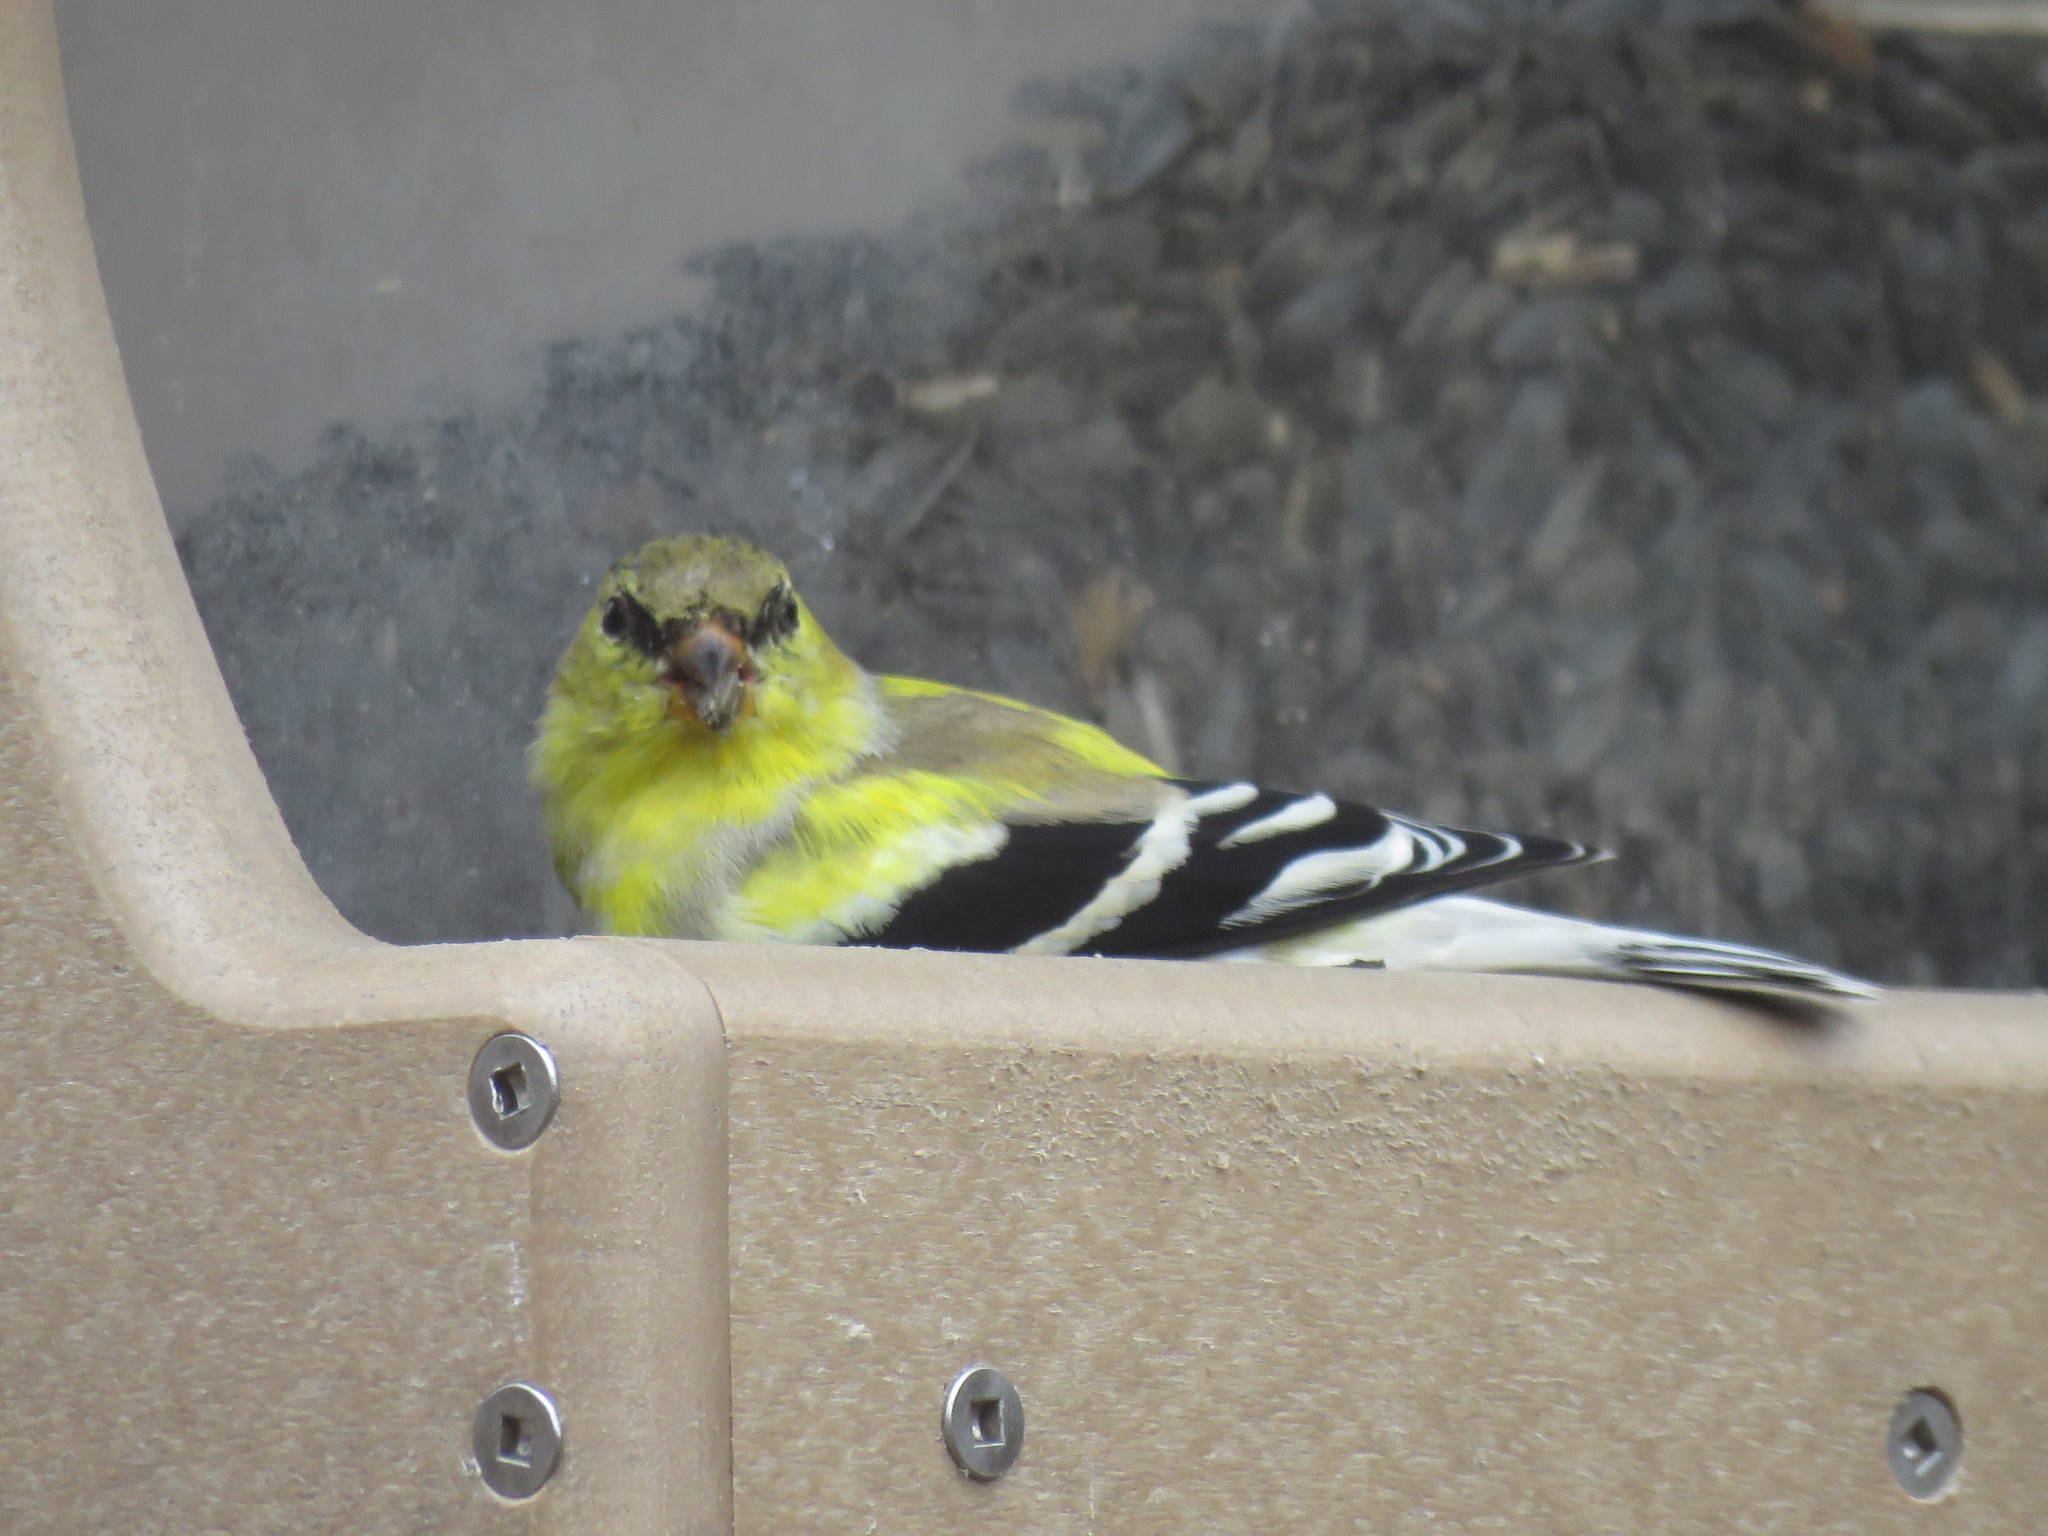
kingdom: Animalia
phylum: Chordata
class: Aves
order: Passeriformes
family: Fringillidae
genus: Spinus
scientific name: Spinus tristis
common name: American goldfinch
